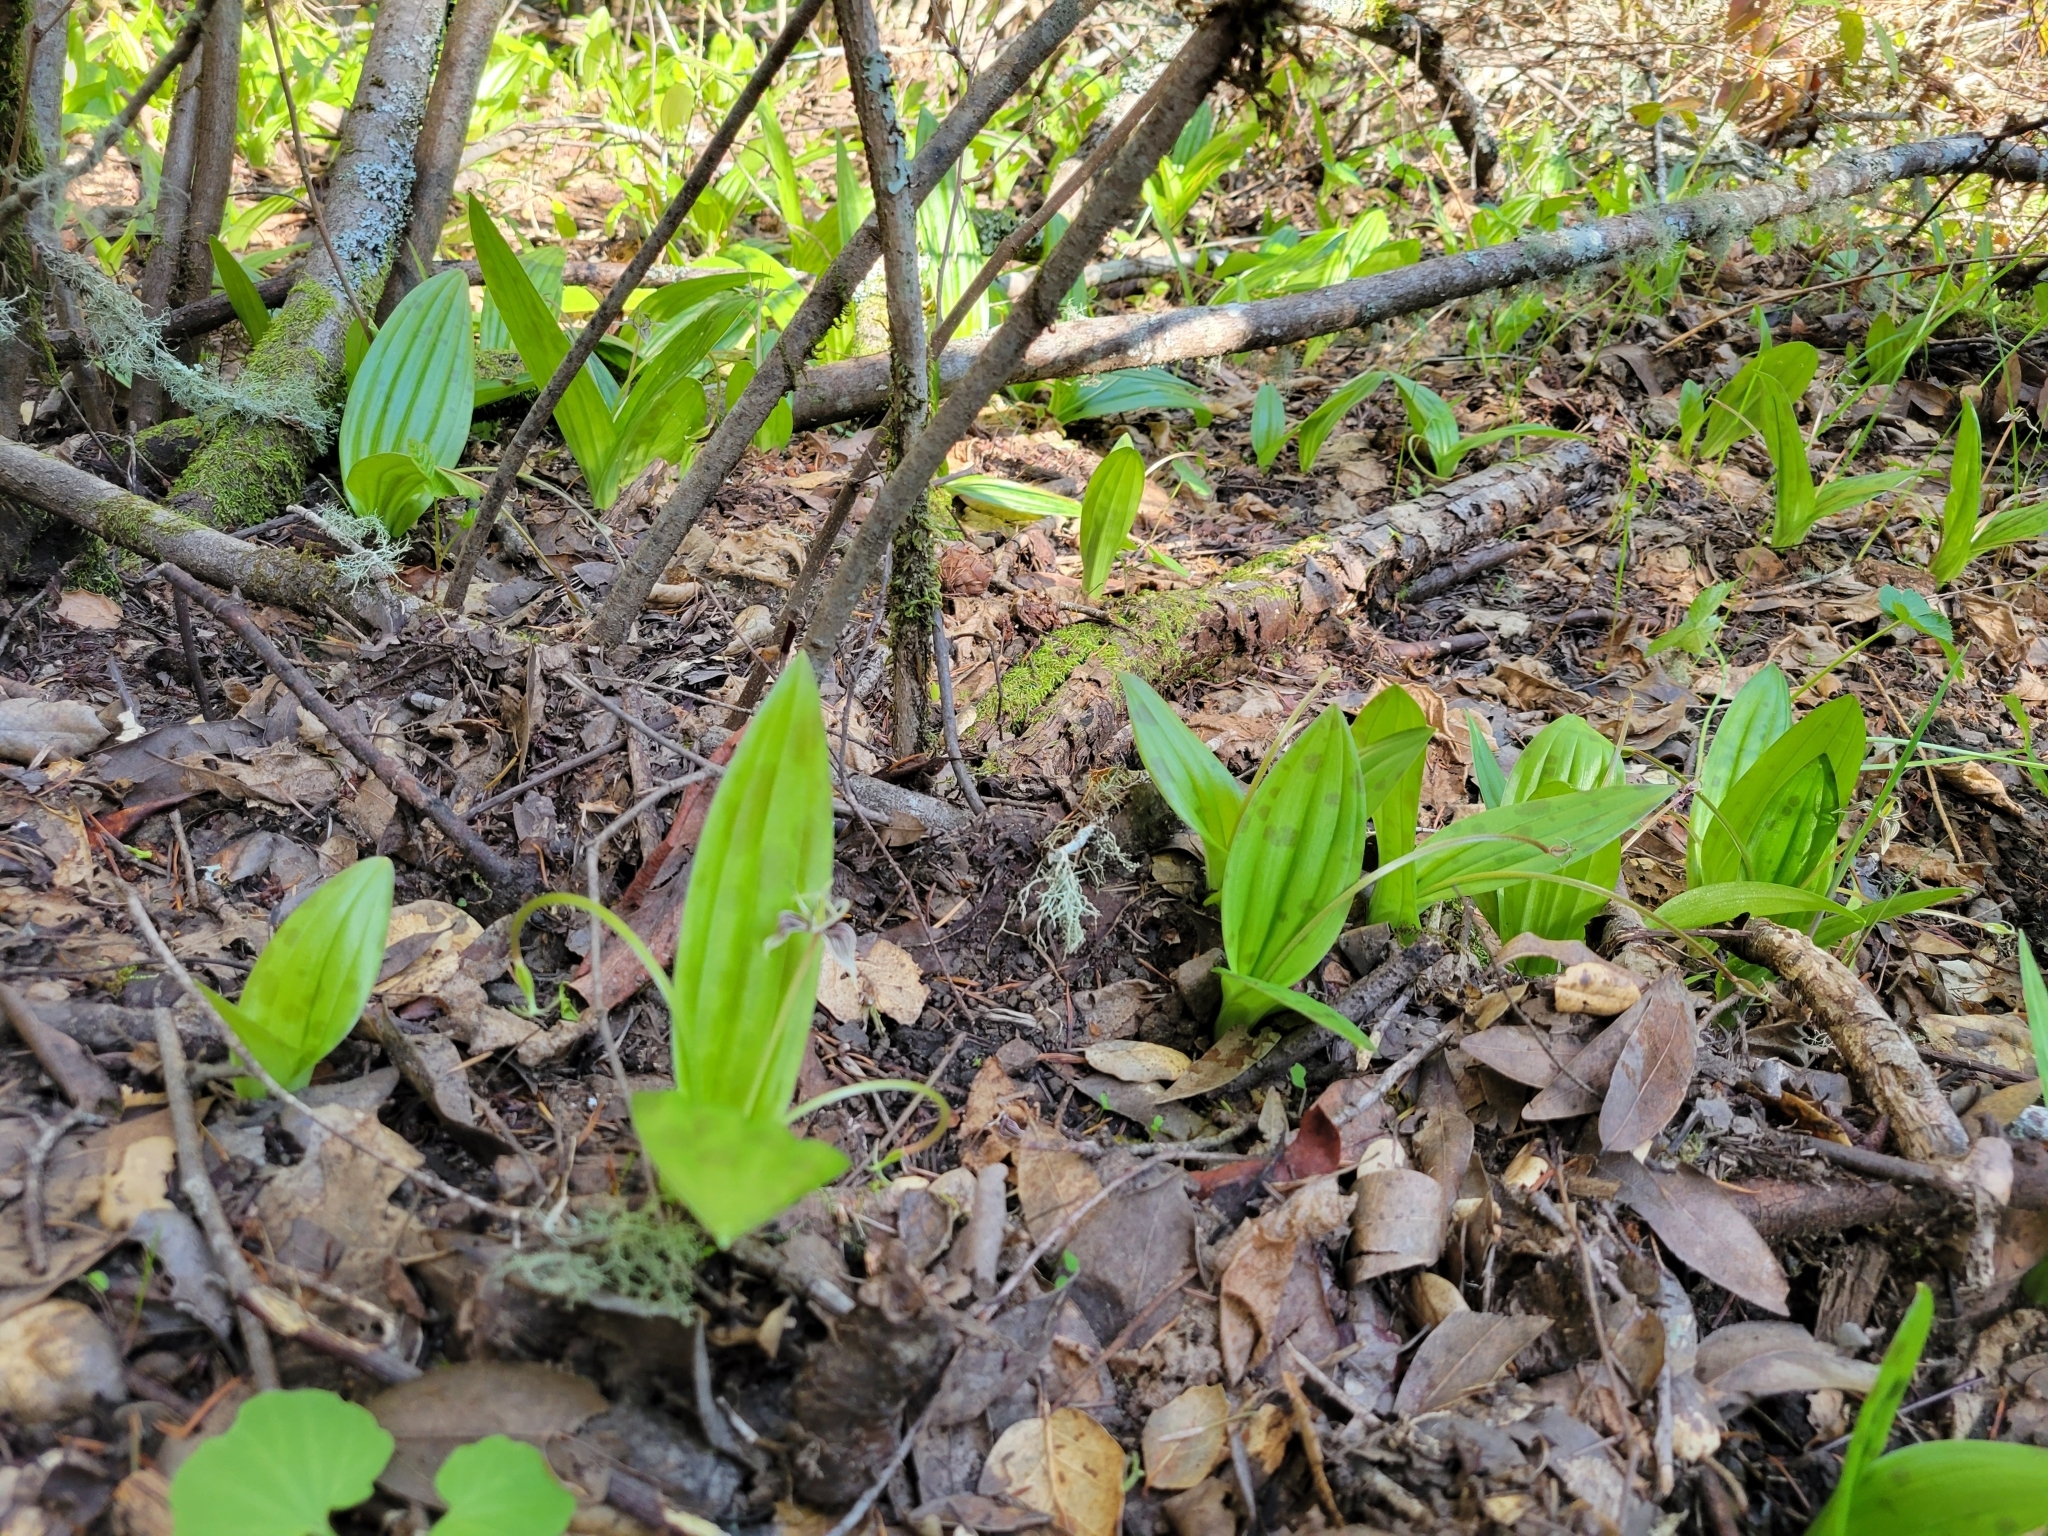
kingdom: Plantae
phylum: Tracheophyta
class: Liliopsida
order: Liliales
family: Liliaceae
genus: Scoliopus
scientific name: Scoliopus bigelovii
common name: Foetid adder's-tongue
